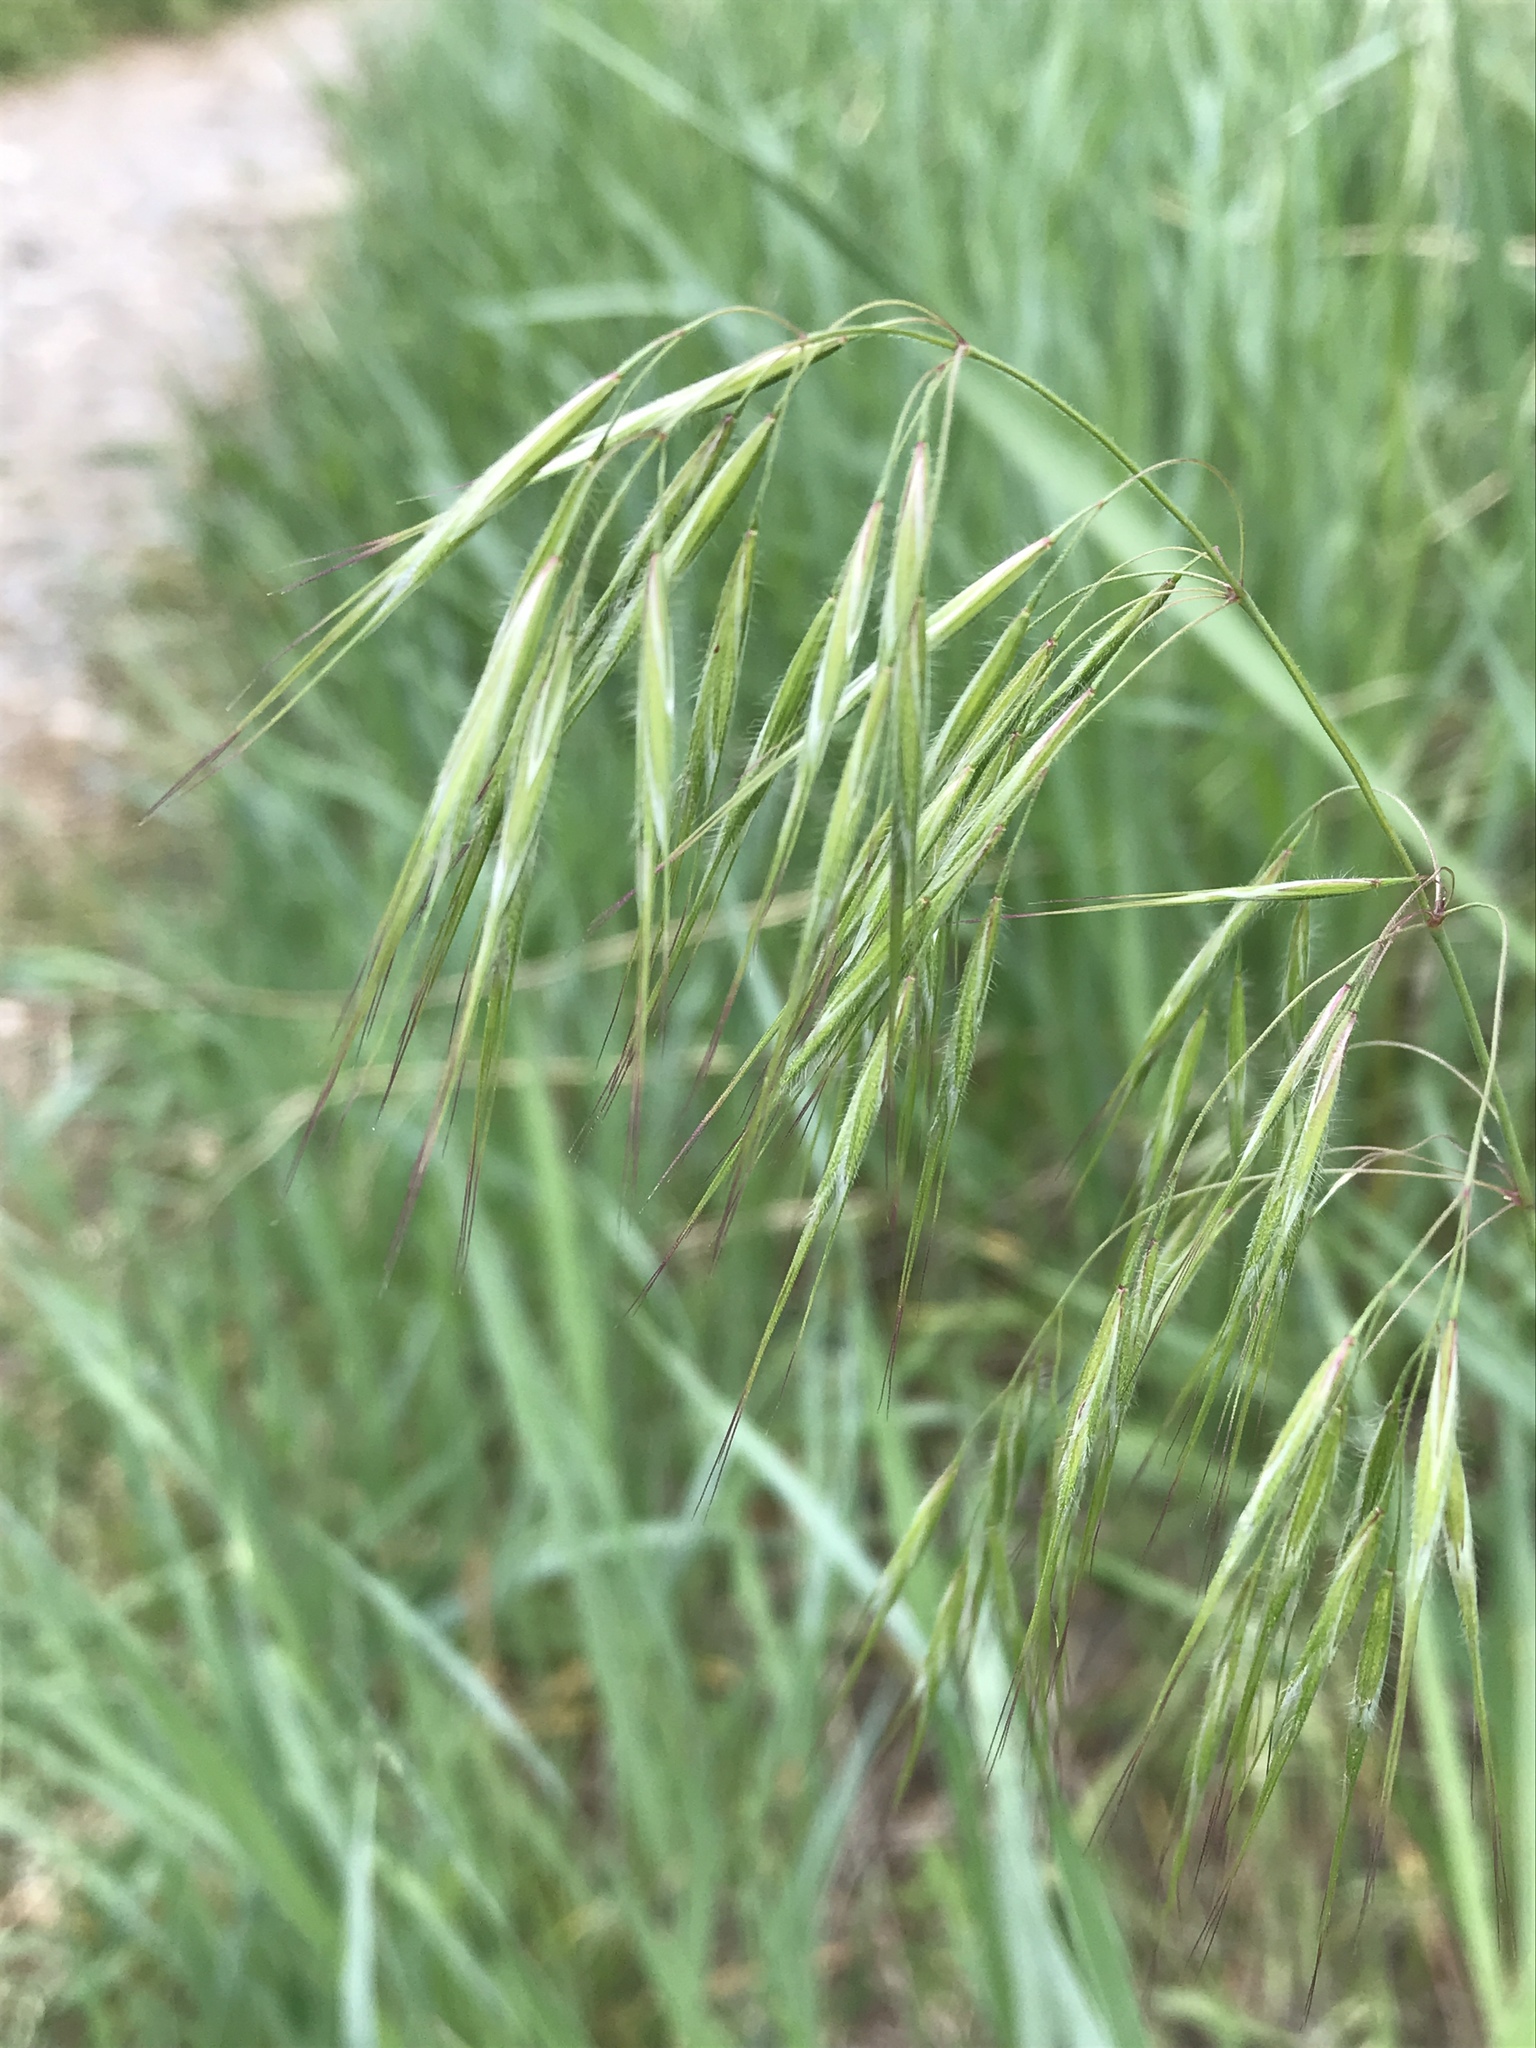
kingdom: Plantae
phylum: Tracheophyta
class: Liliopsida
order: Poales
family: Poaceae
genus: Bromus
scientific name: Bromus tectorum
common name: Cheatgrass
